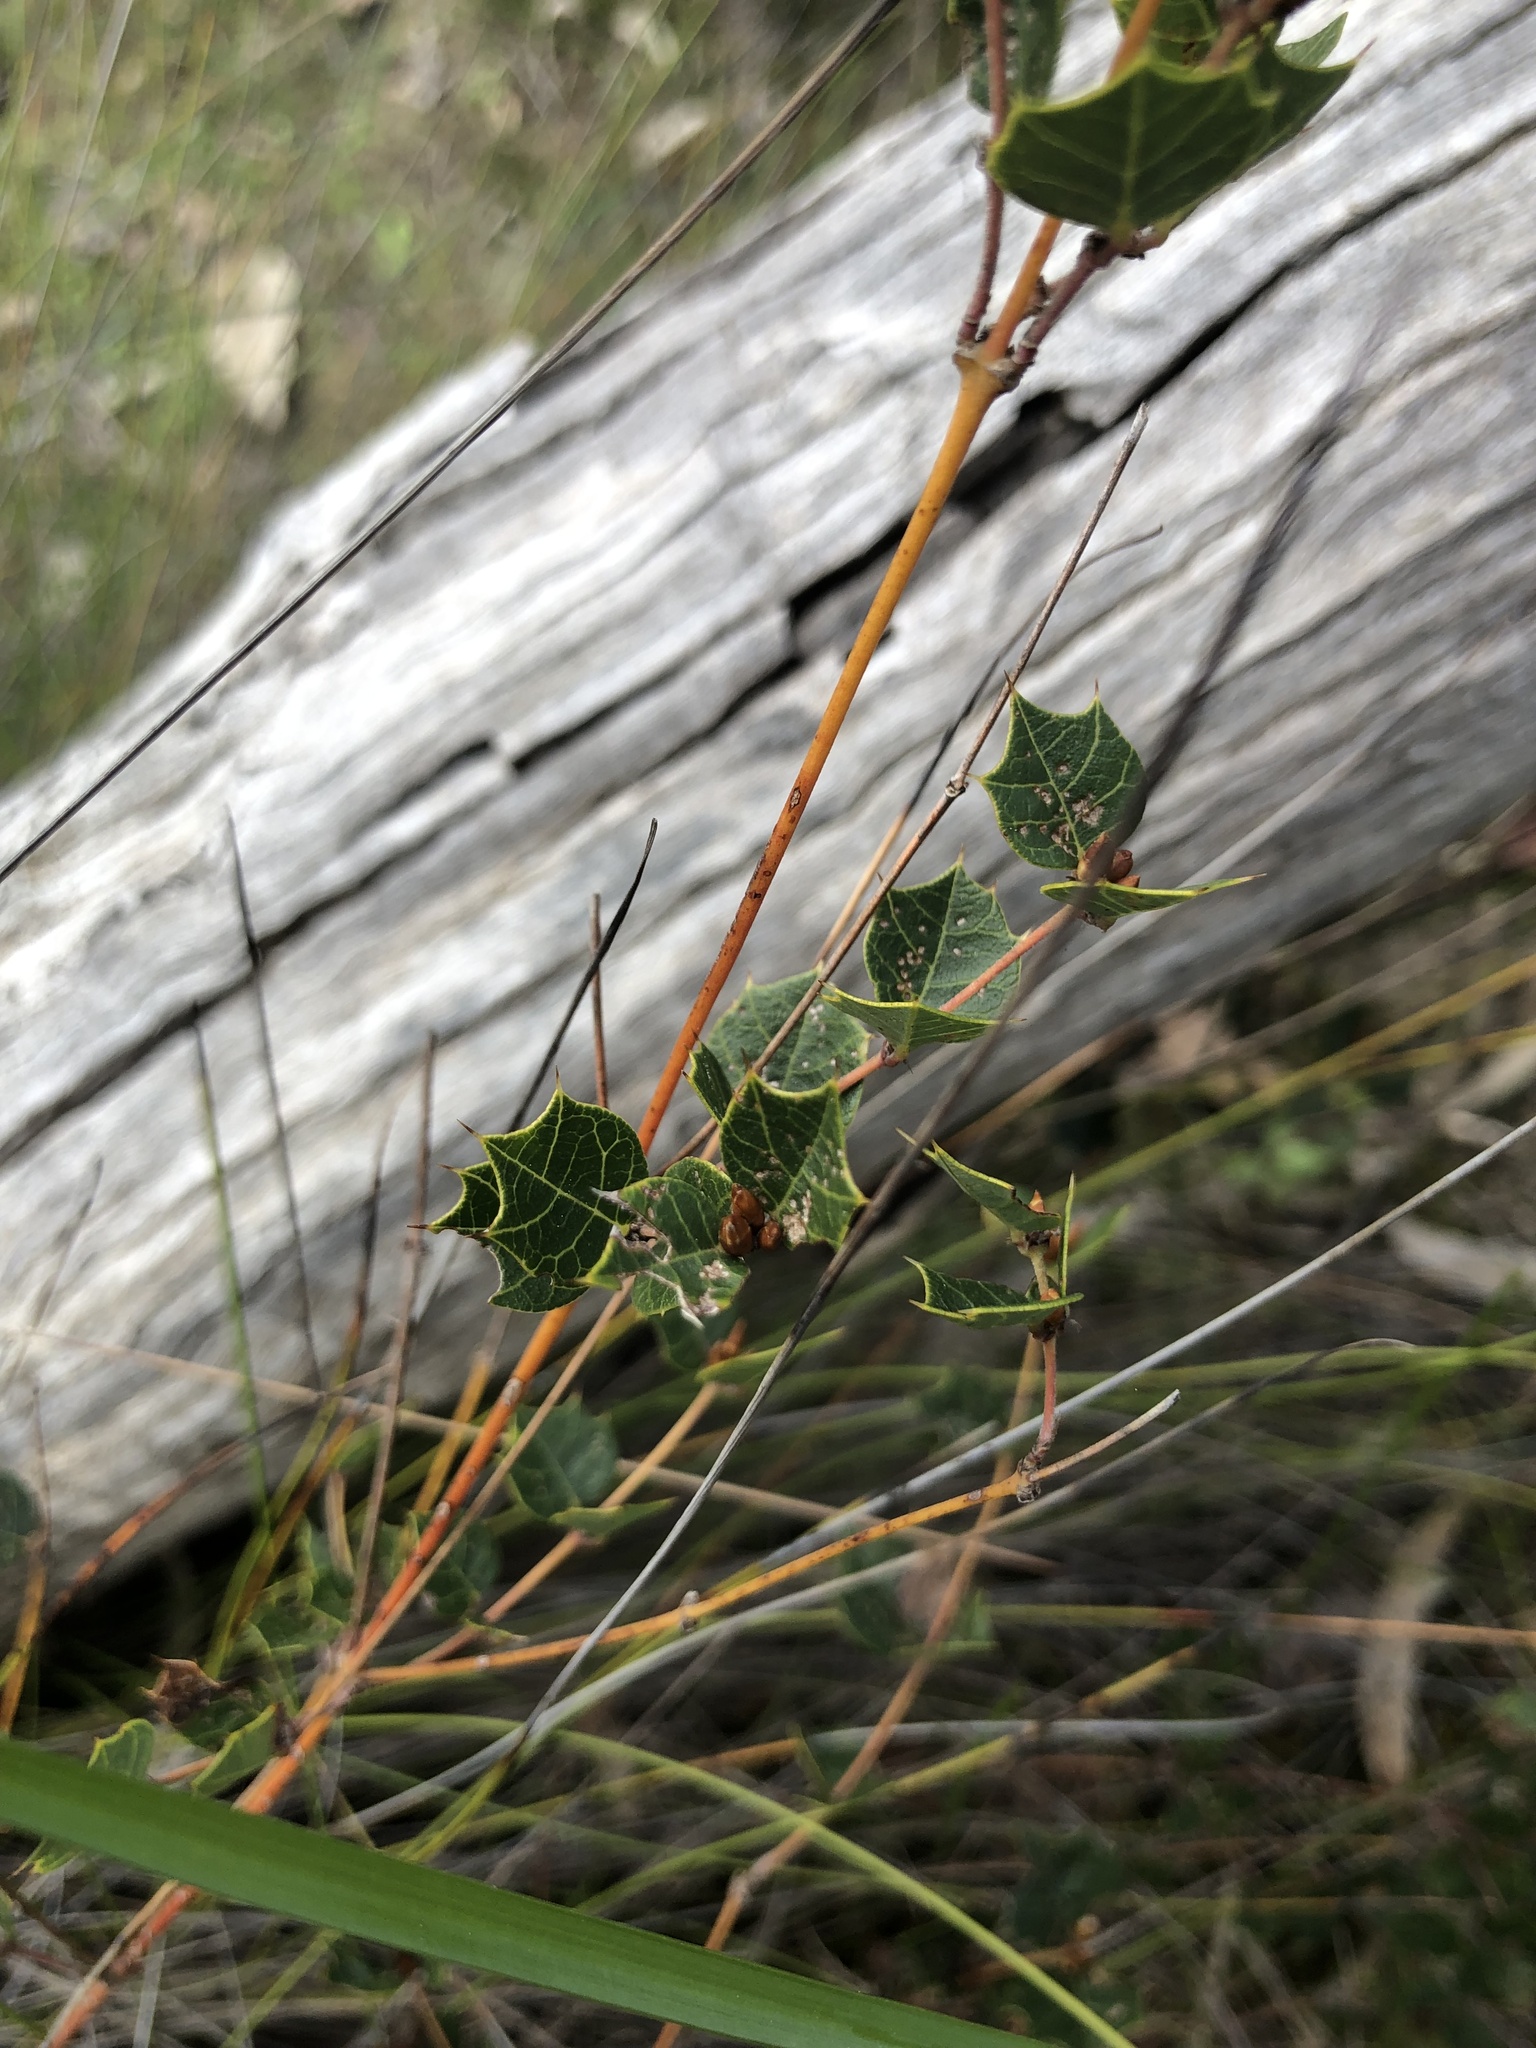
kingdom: Plantae
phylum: Tracheophyta
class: Magnoliopsida
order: Fabales
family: Fabaceae
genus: Platylobium
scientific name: Platylobium obtusangulum
